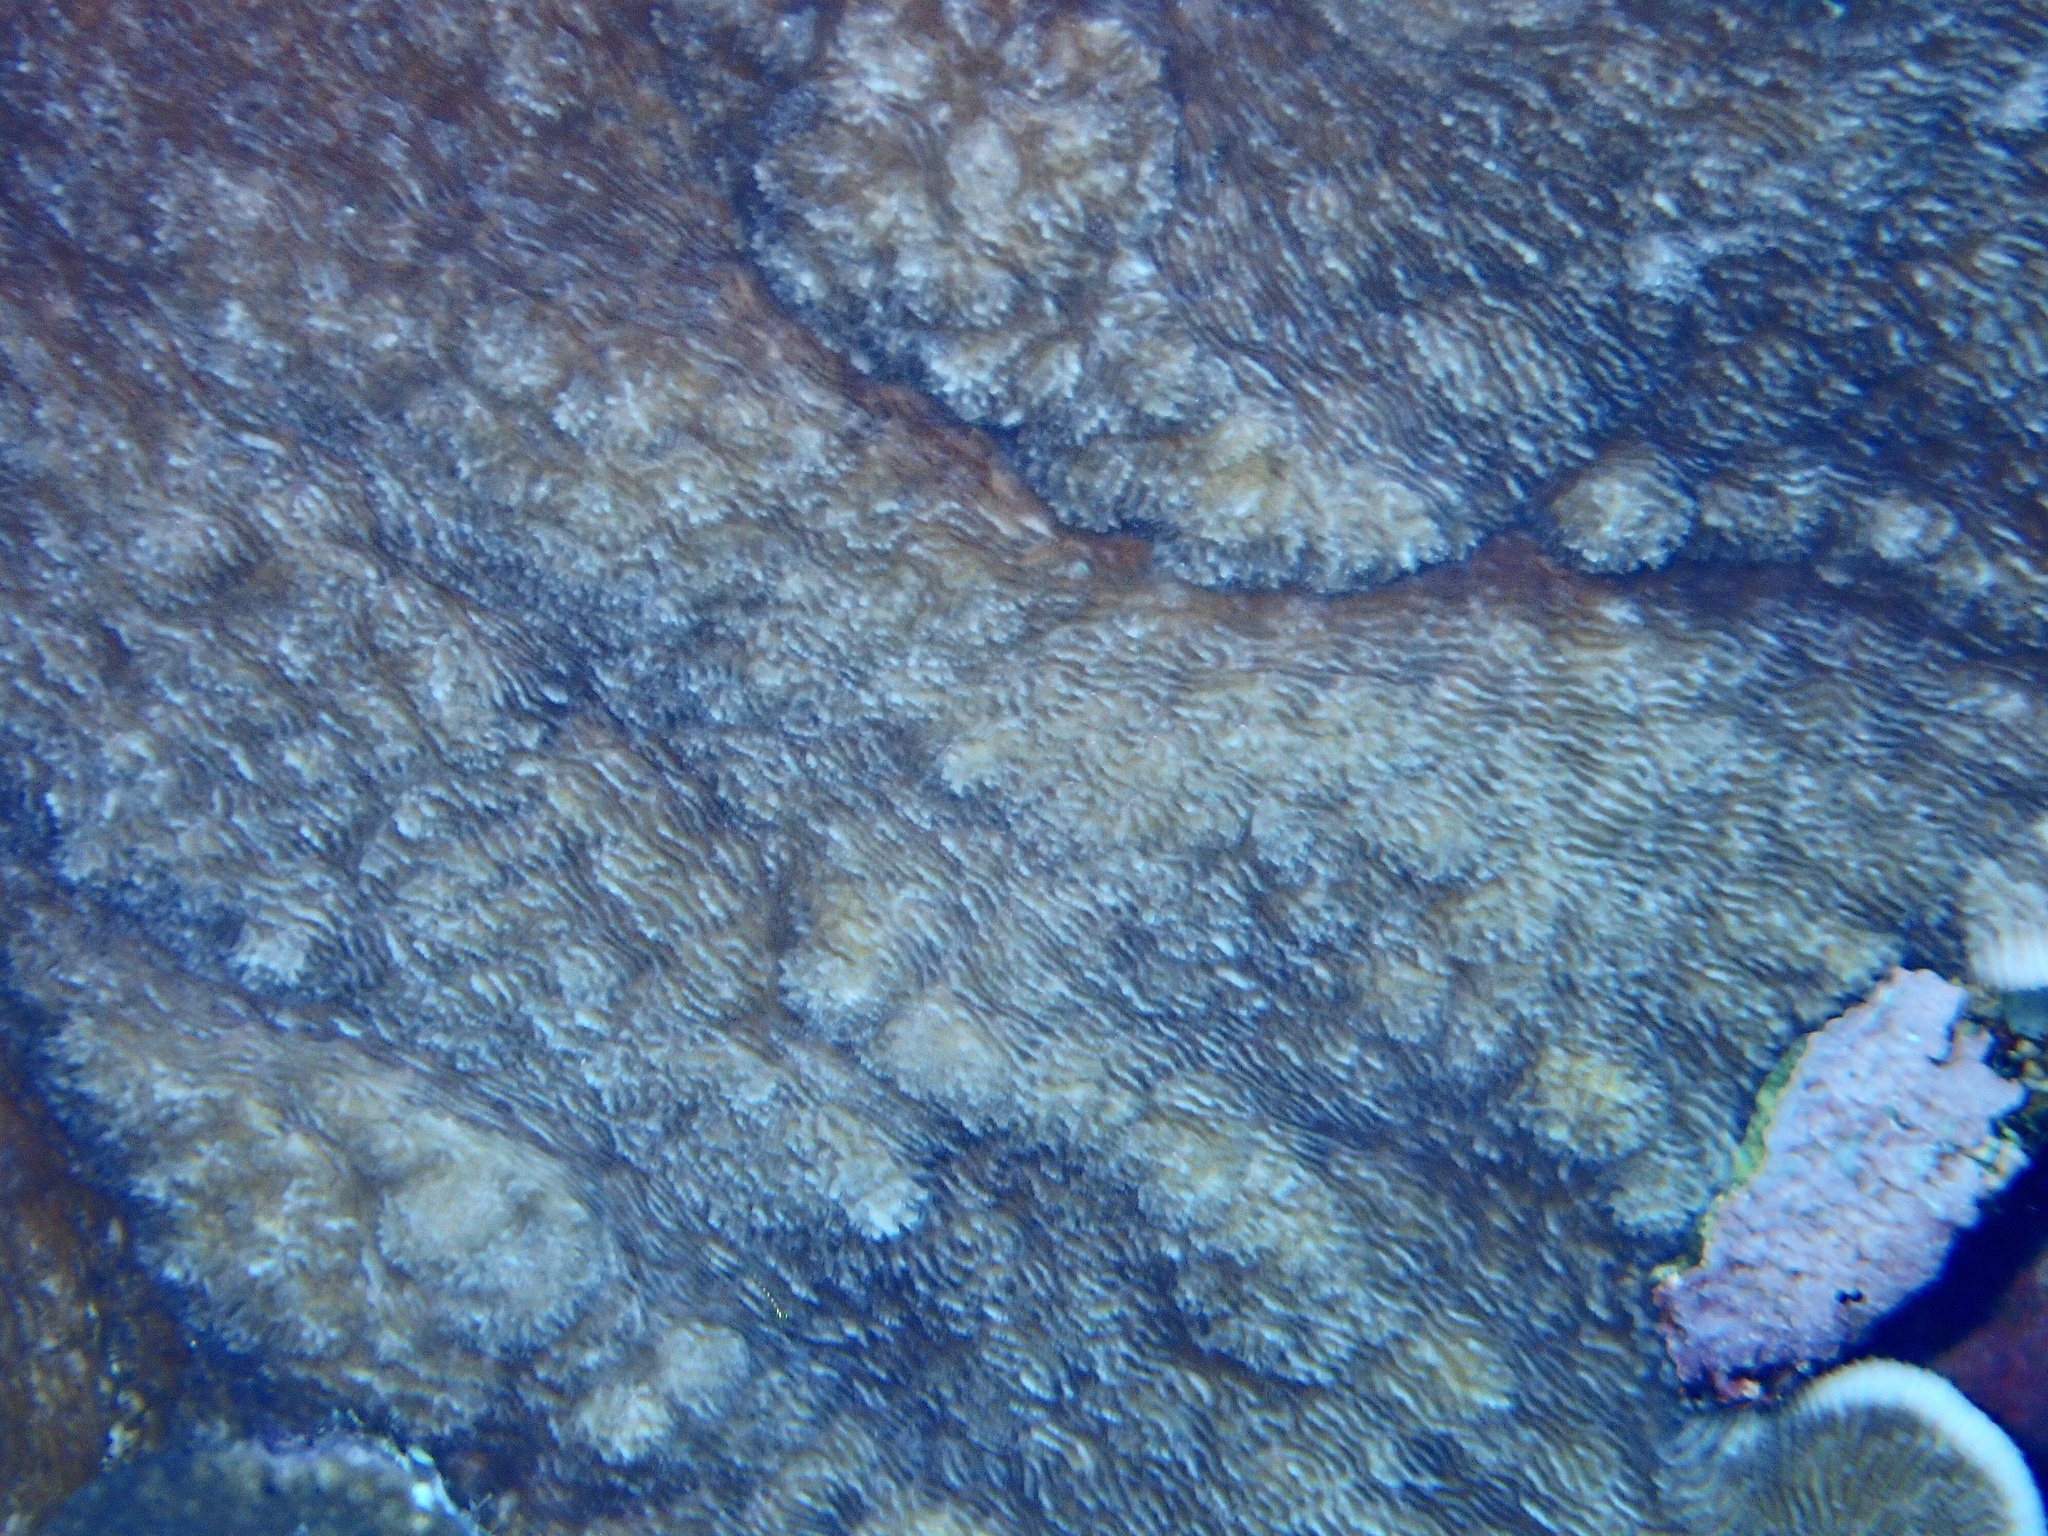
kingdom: Animalia
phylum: Cnidaria
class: Anthozoa
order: Scleractinia
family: Fungiidae
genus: Podabacia
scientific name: Podabacia sinai
